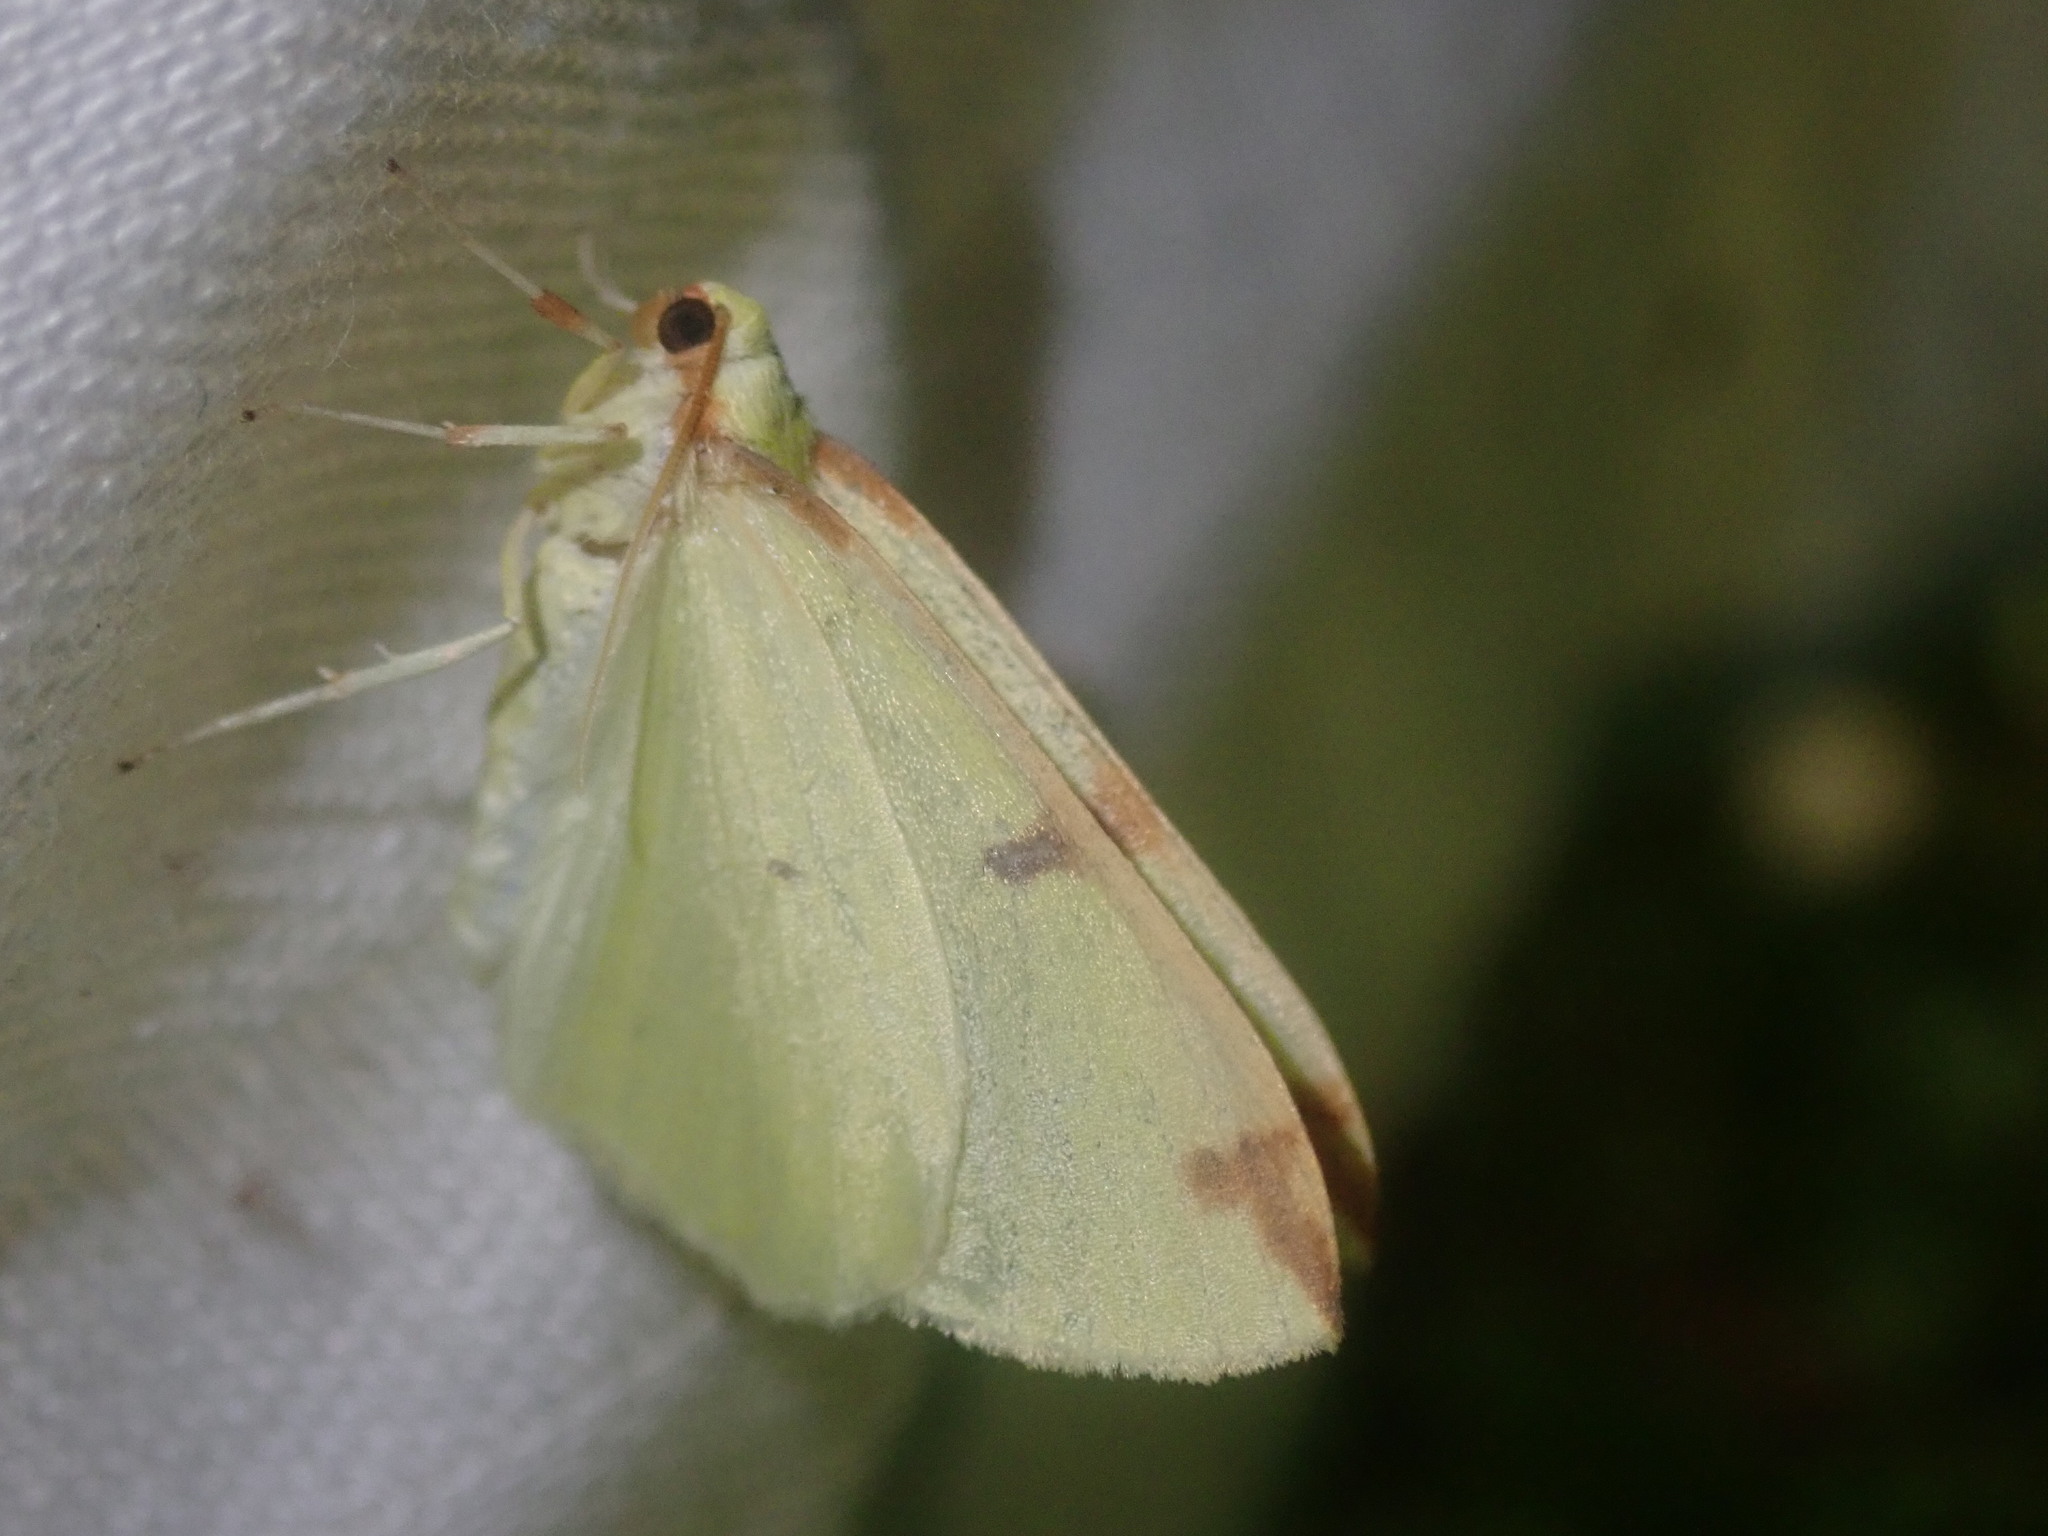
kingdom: Animalia
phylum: Arthropoda
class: Insecta
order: Lepidoptera
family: Geometridae
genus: Opisthograptis
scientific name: Opisthograptis luteolata
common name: Brimstone moth
